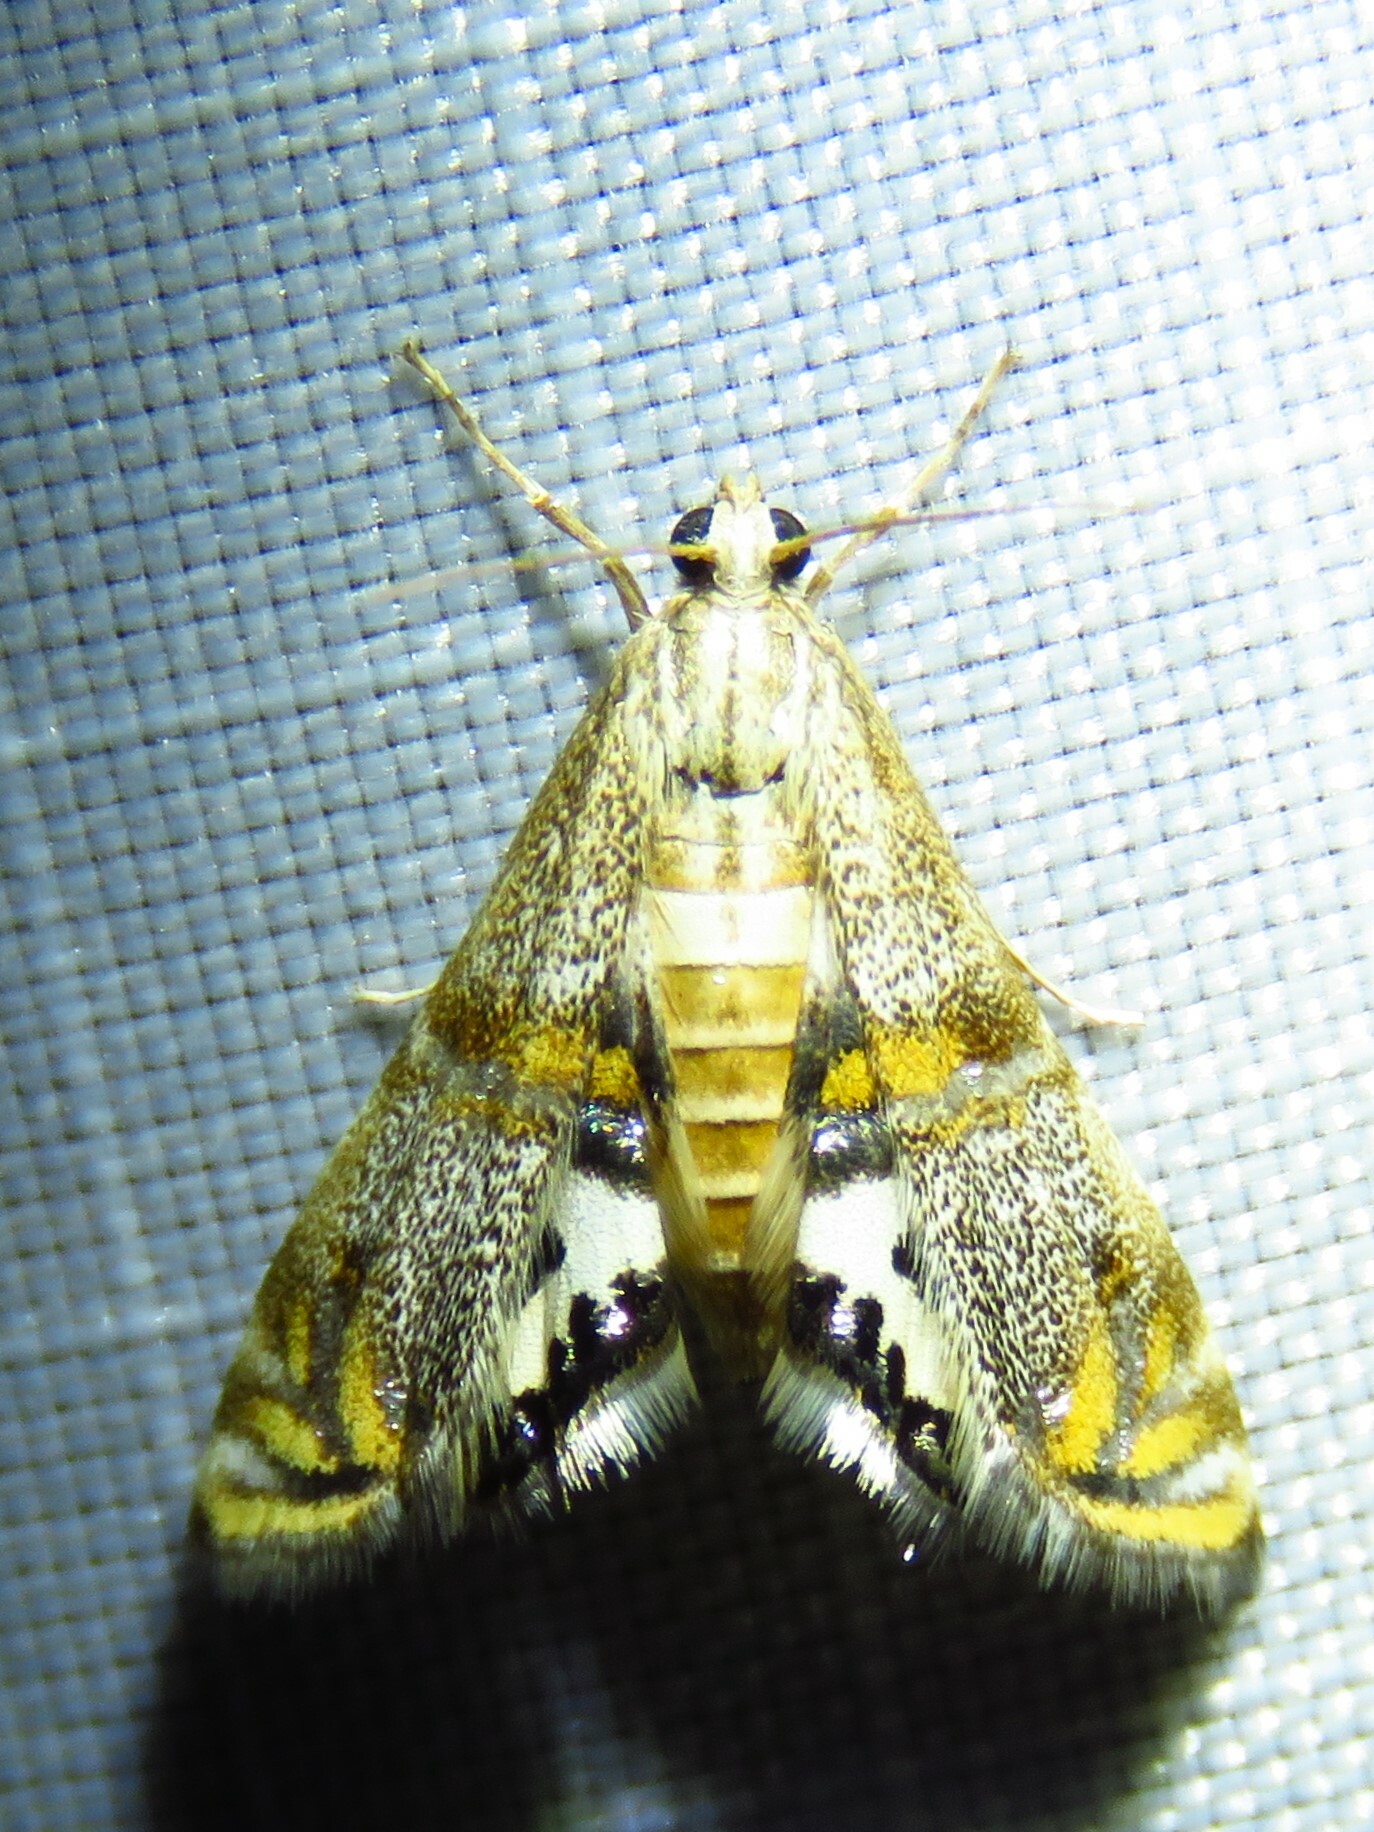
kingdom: Animalia
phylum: Arthropoda
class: Insecta
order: Lepidoptera
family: Crambidae
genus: Petrophila
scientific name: Petrophila bifascialis
